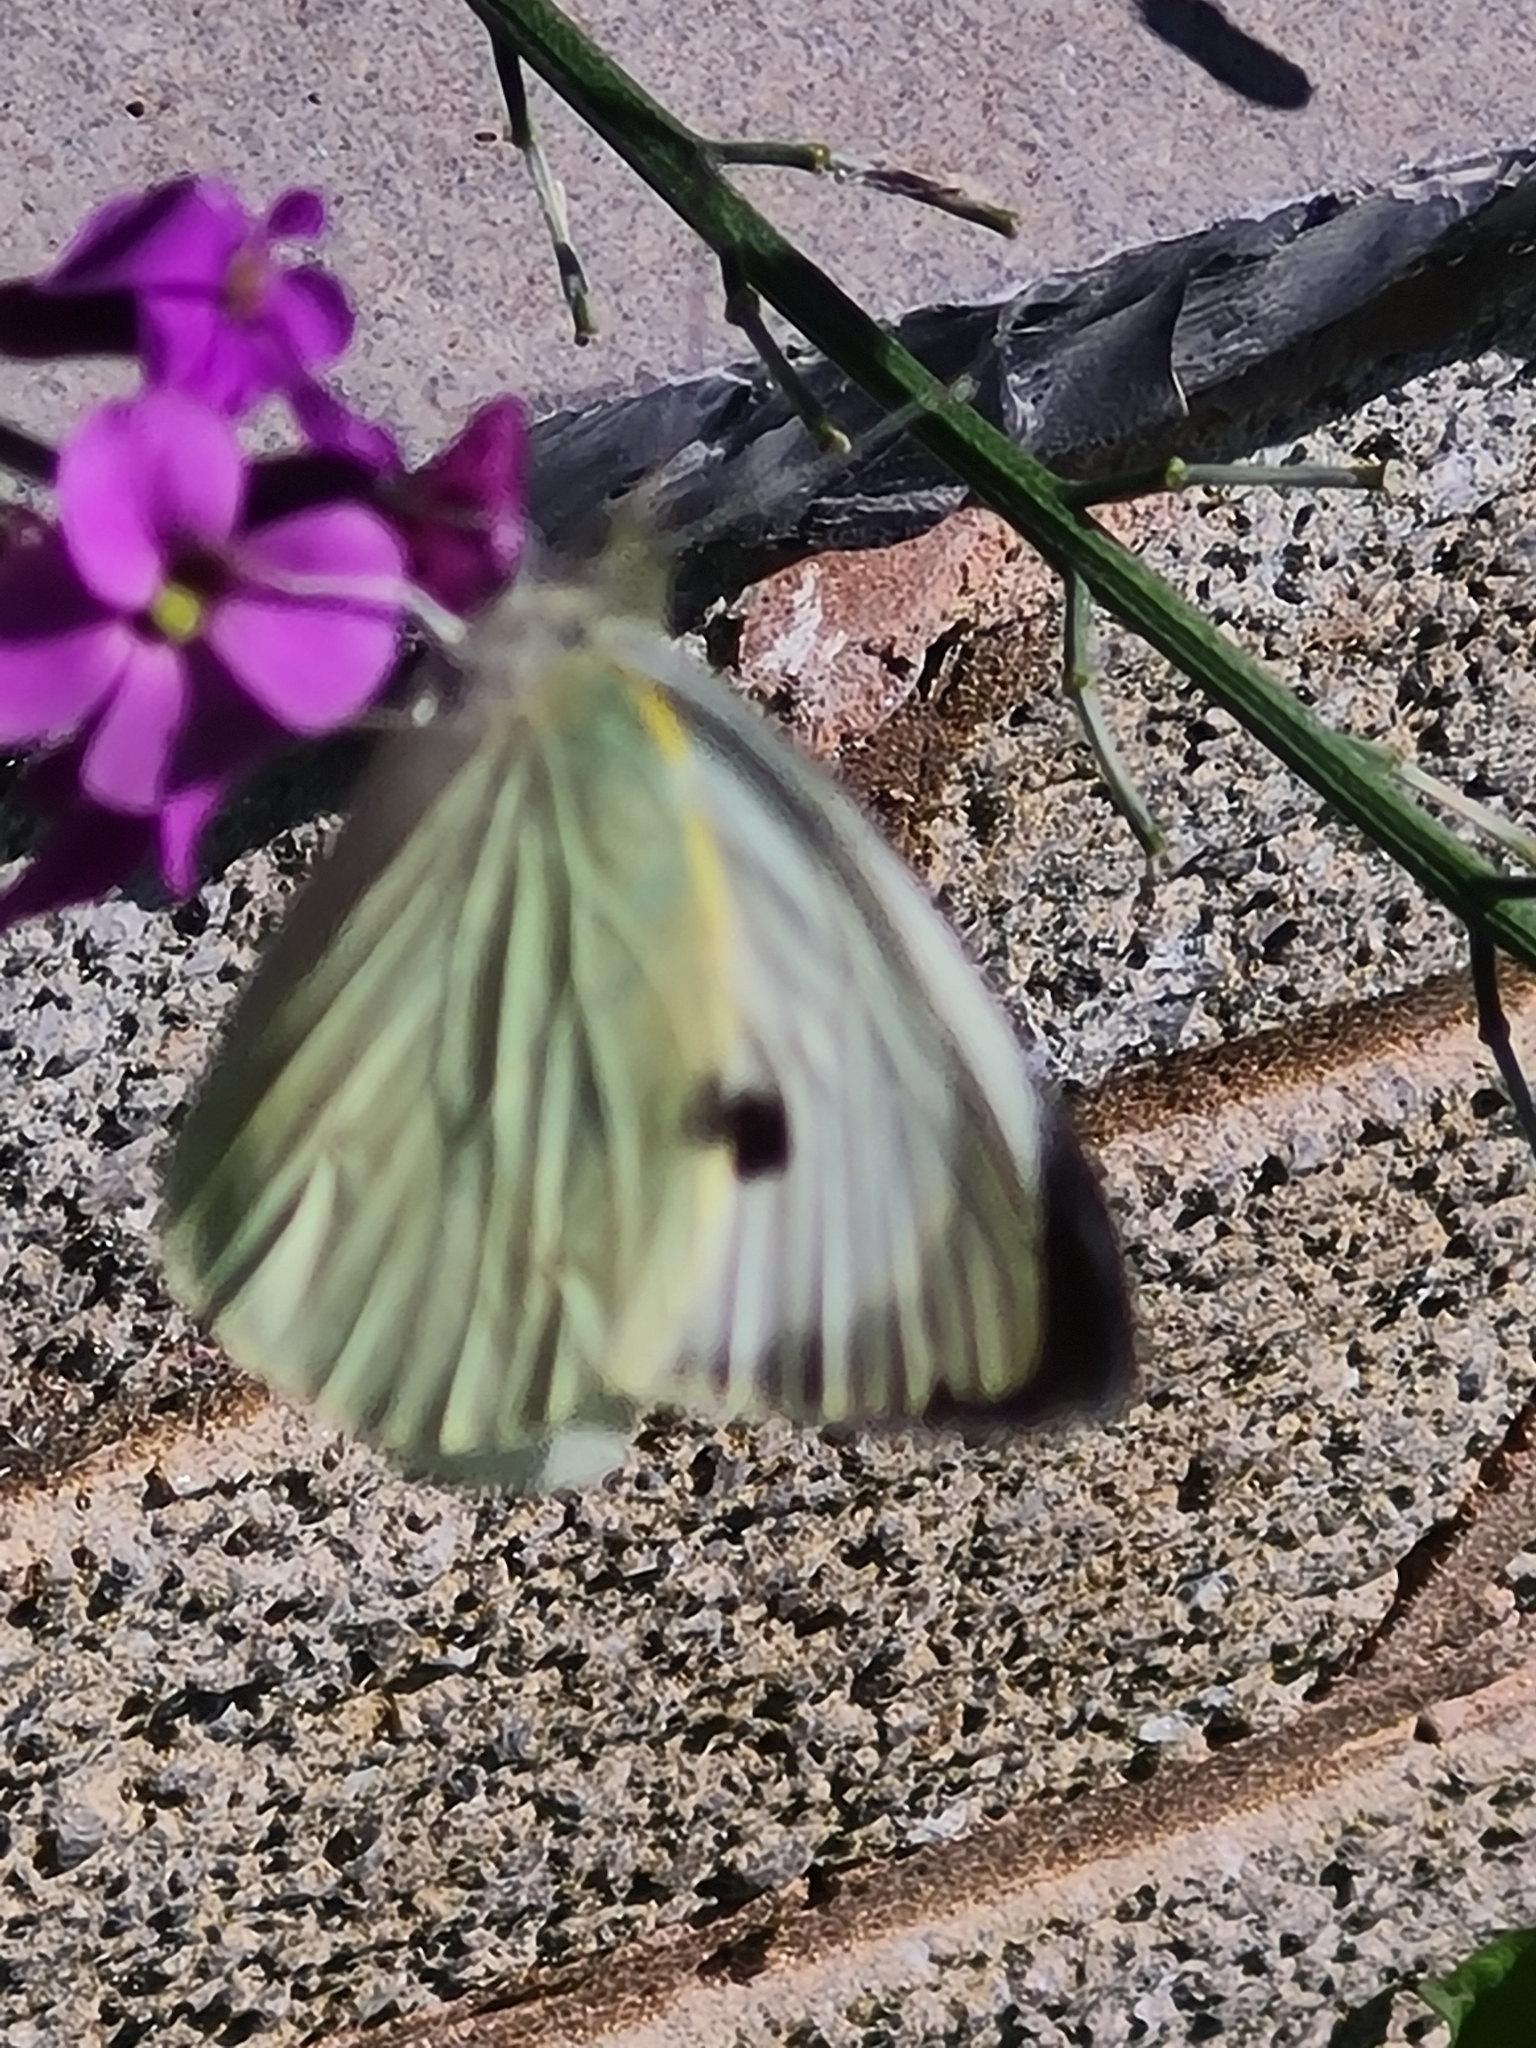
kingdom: Animalia
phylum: Arthropoda
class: Insecta
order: Lepidoptera
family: Pieridae
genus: Pieris
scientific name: Pieris brassicae
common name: Large white
